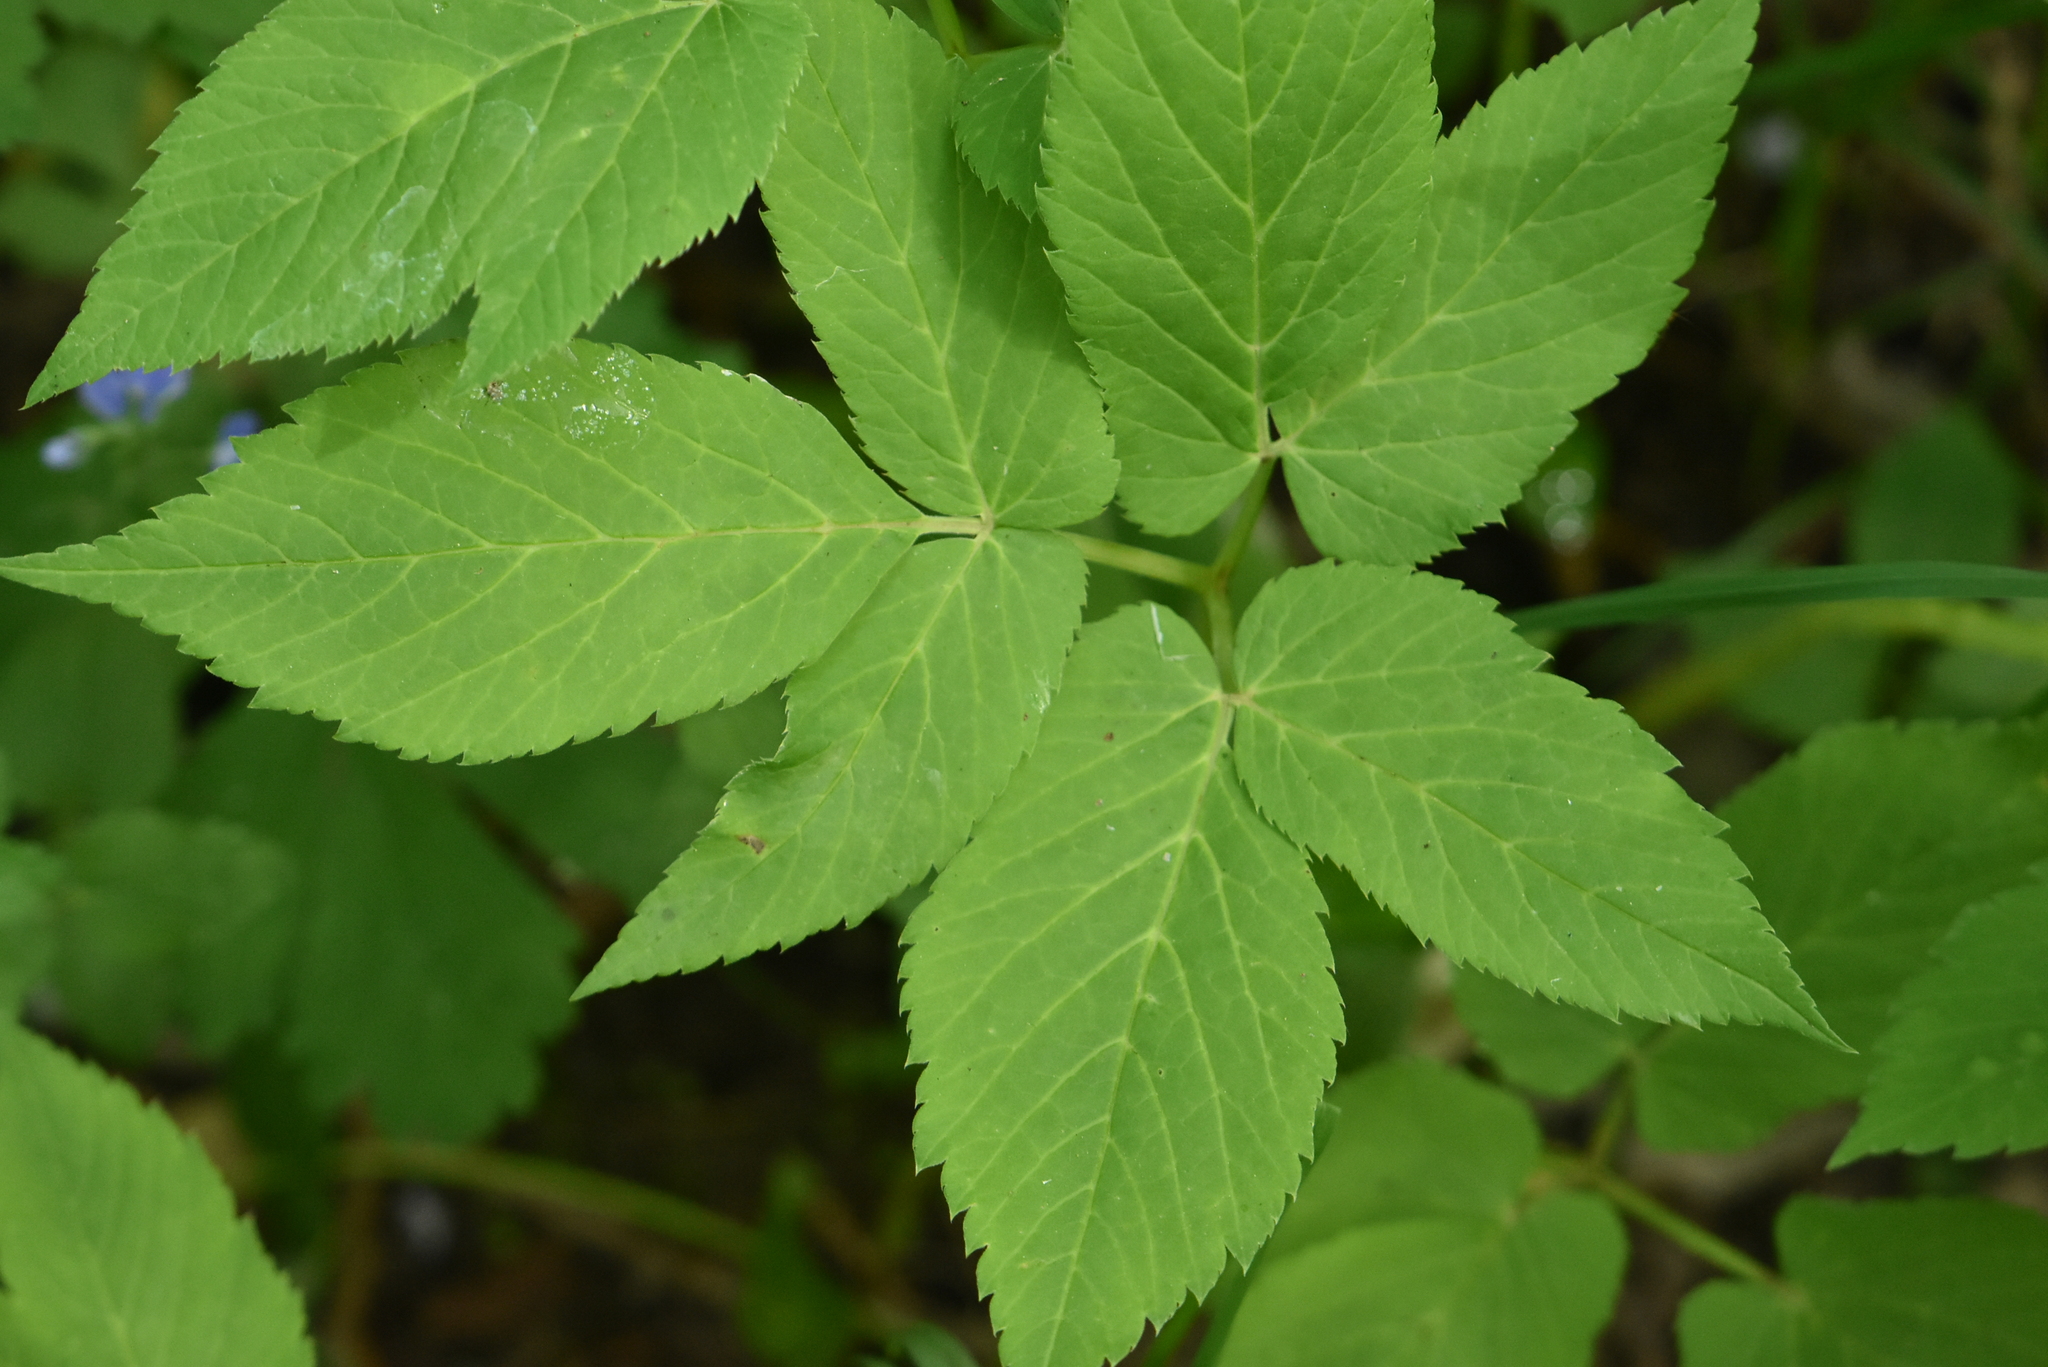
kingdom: Plantae
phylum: Tracheophyta
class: Magnoliopsida
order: Apiales
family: Apiaceae
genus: Aegopodium
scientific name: Aegopodium podagraria
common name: Ground-elder
